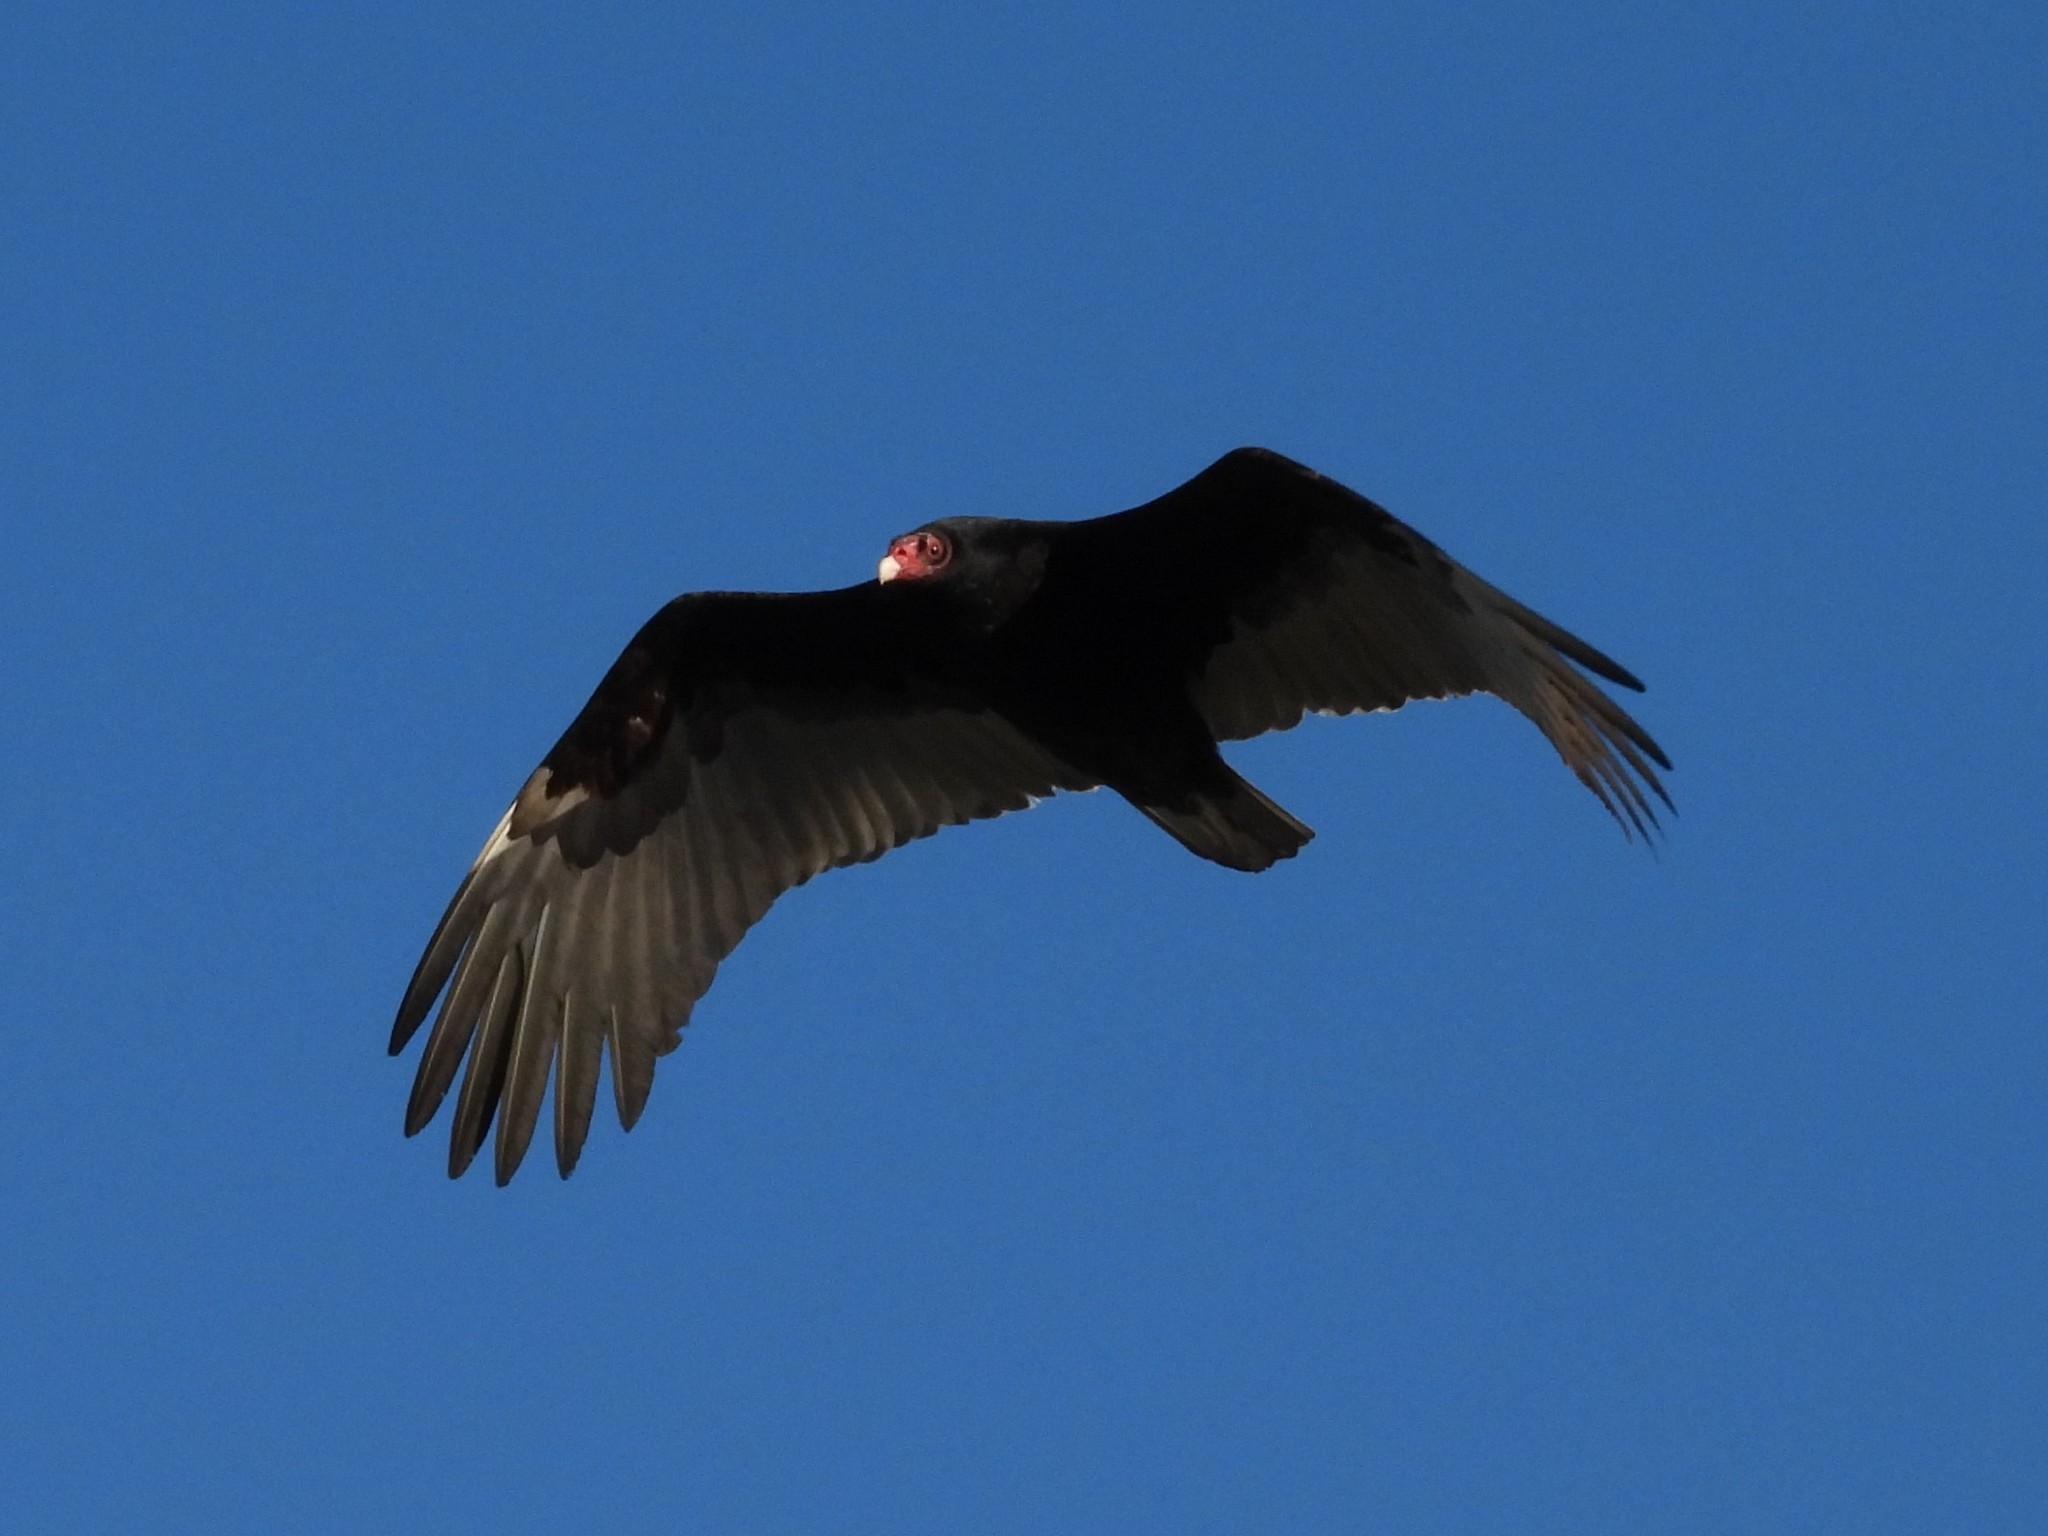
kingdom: Animalia
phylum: Chordata
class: Aves
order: Accipitriformes
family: Cathartidae
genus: Cathartes
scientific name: Cathartes aura
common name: Turkey vulture
